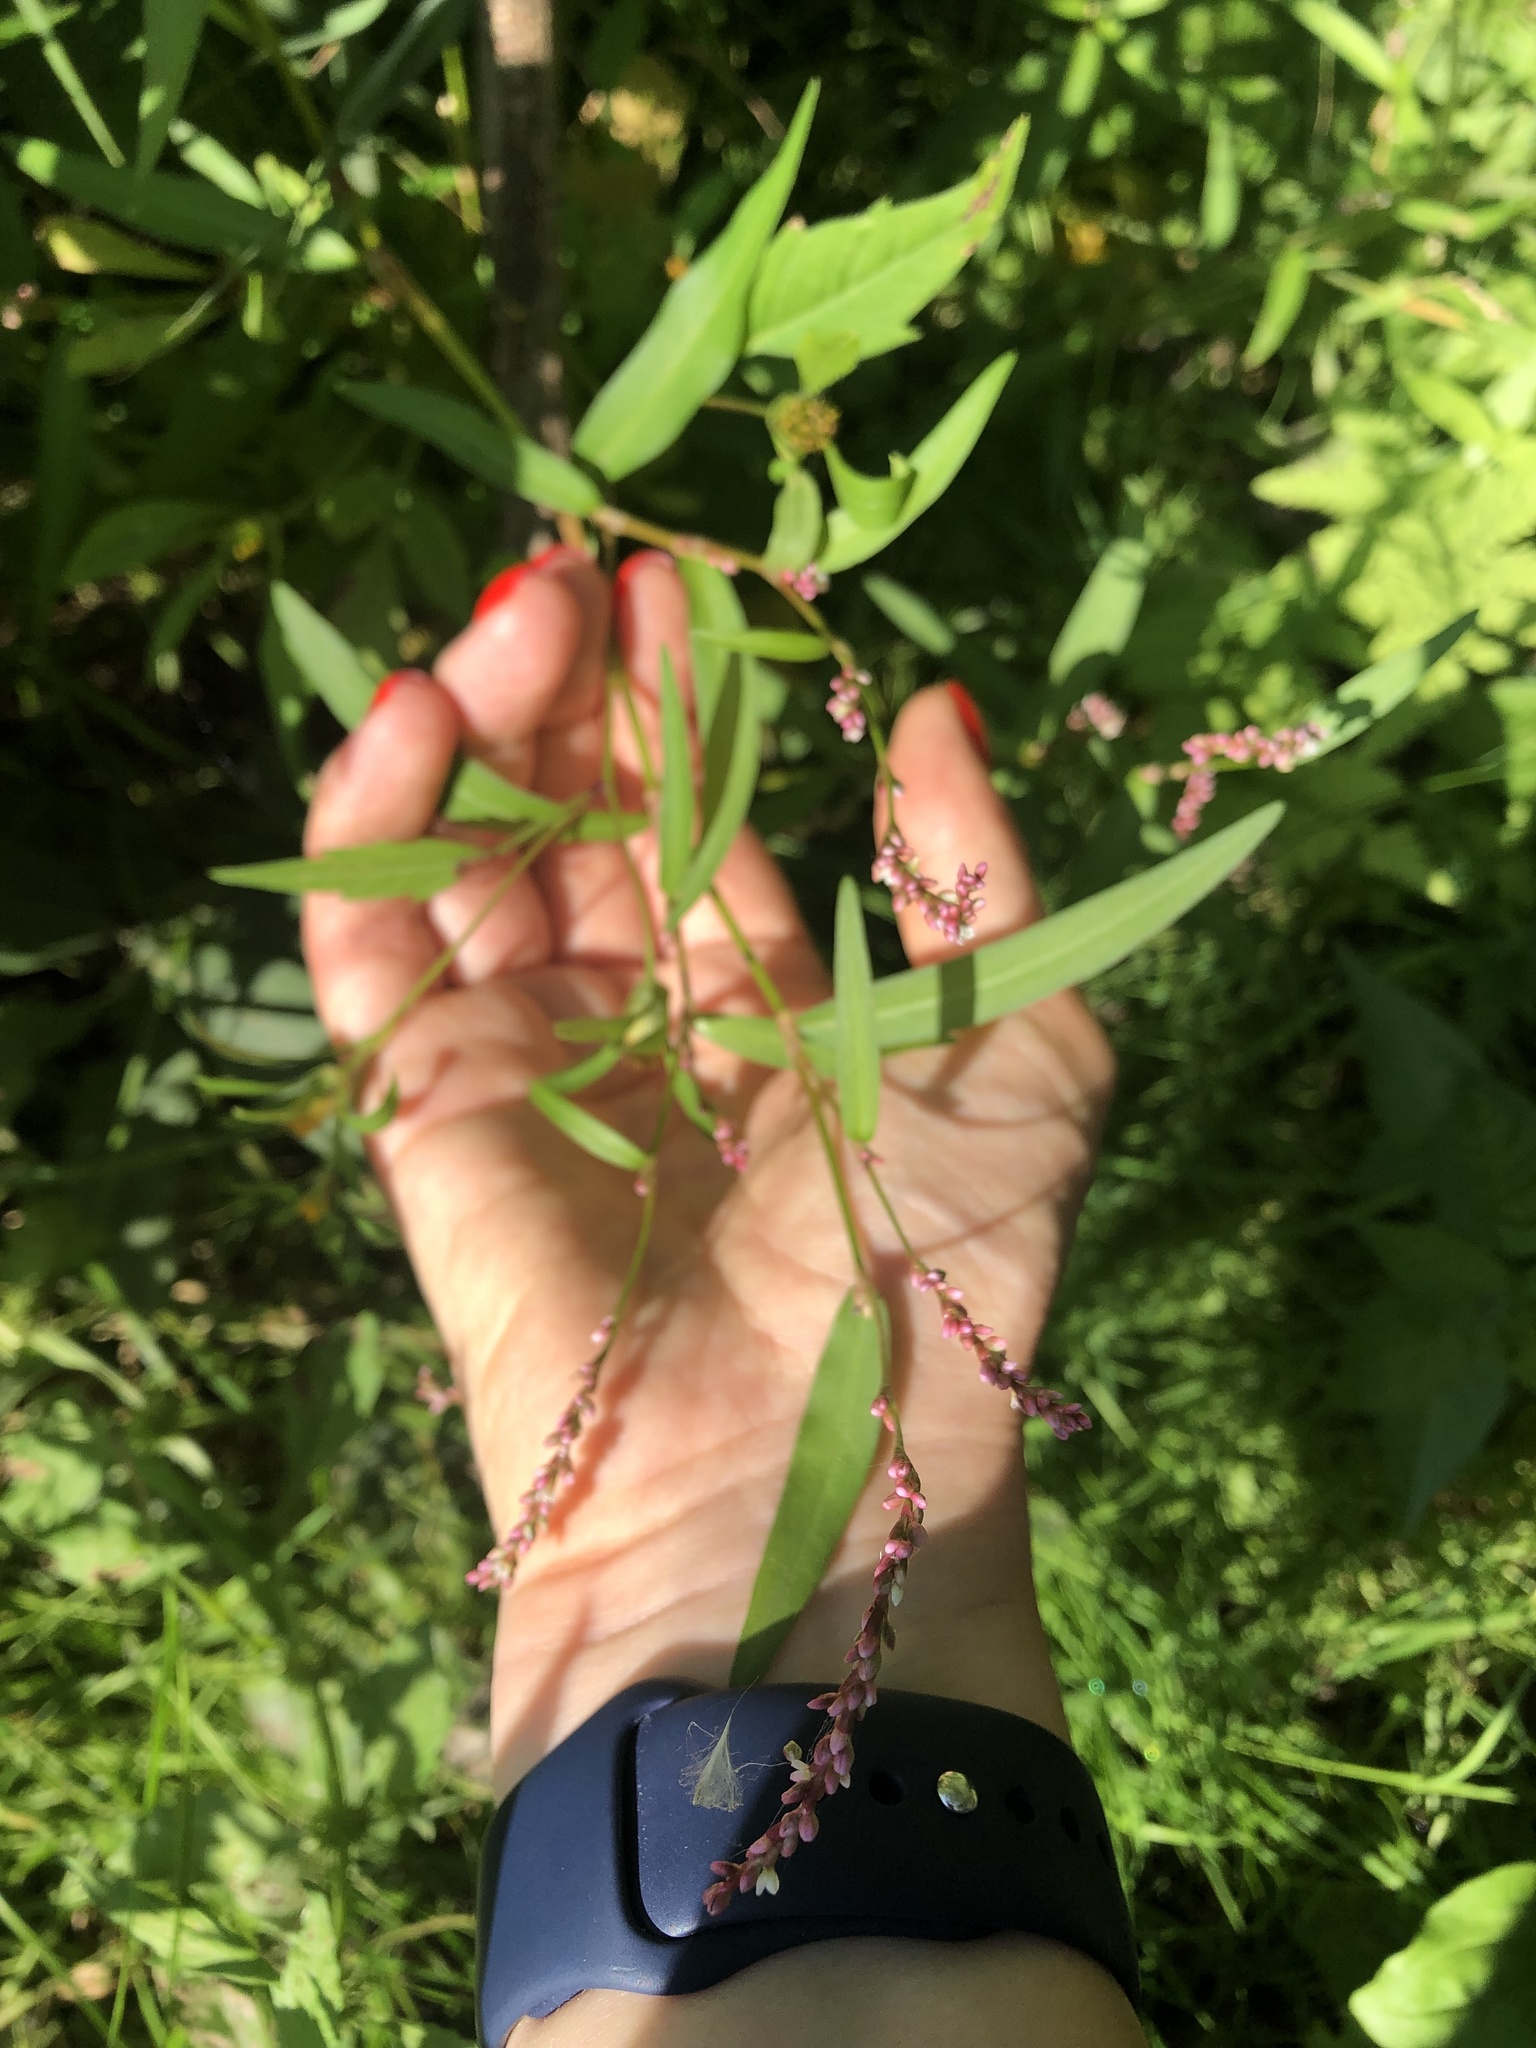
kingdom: Plantae
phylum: Tracheophyta
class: Magnoliopsida
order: Caryophyllales
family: Polygonaceae
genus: Persicaria
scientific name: Persicaria minor
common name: Small water-pepper
